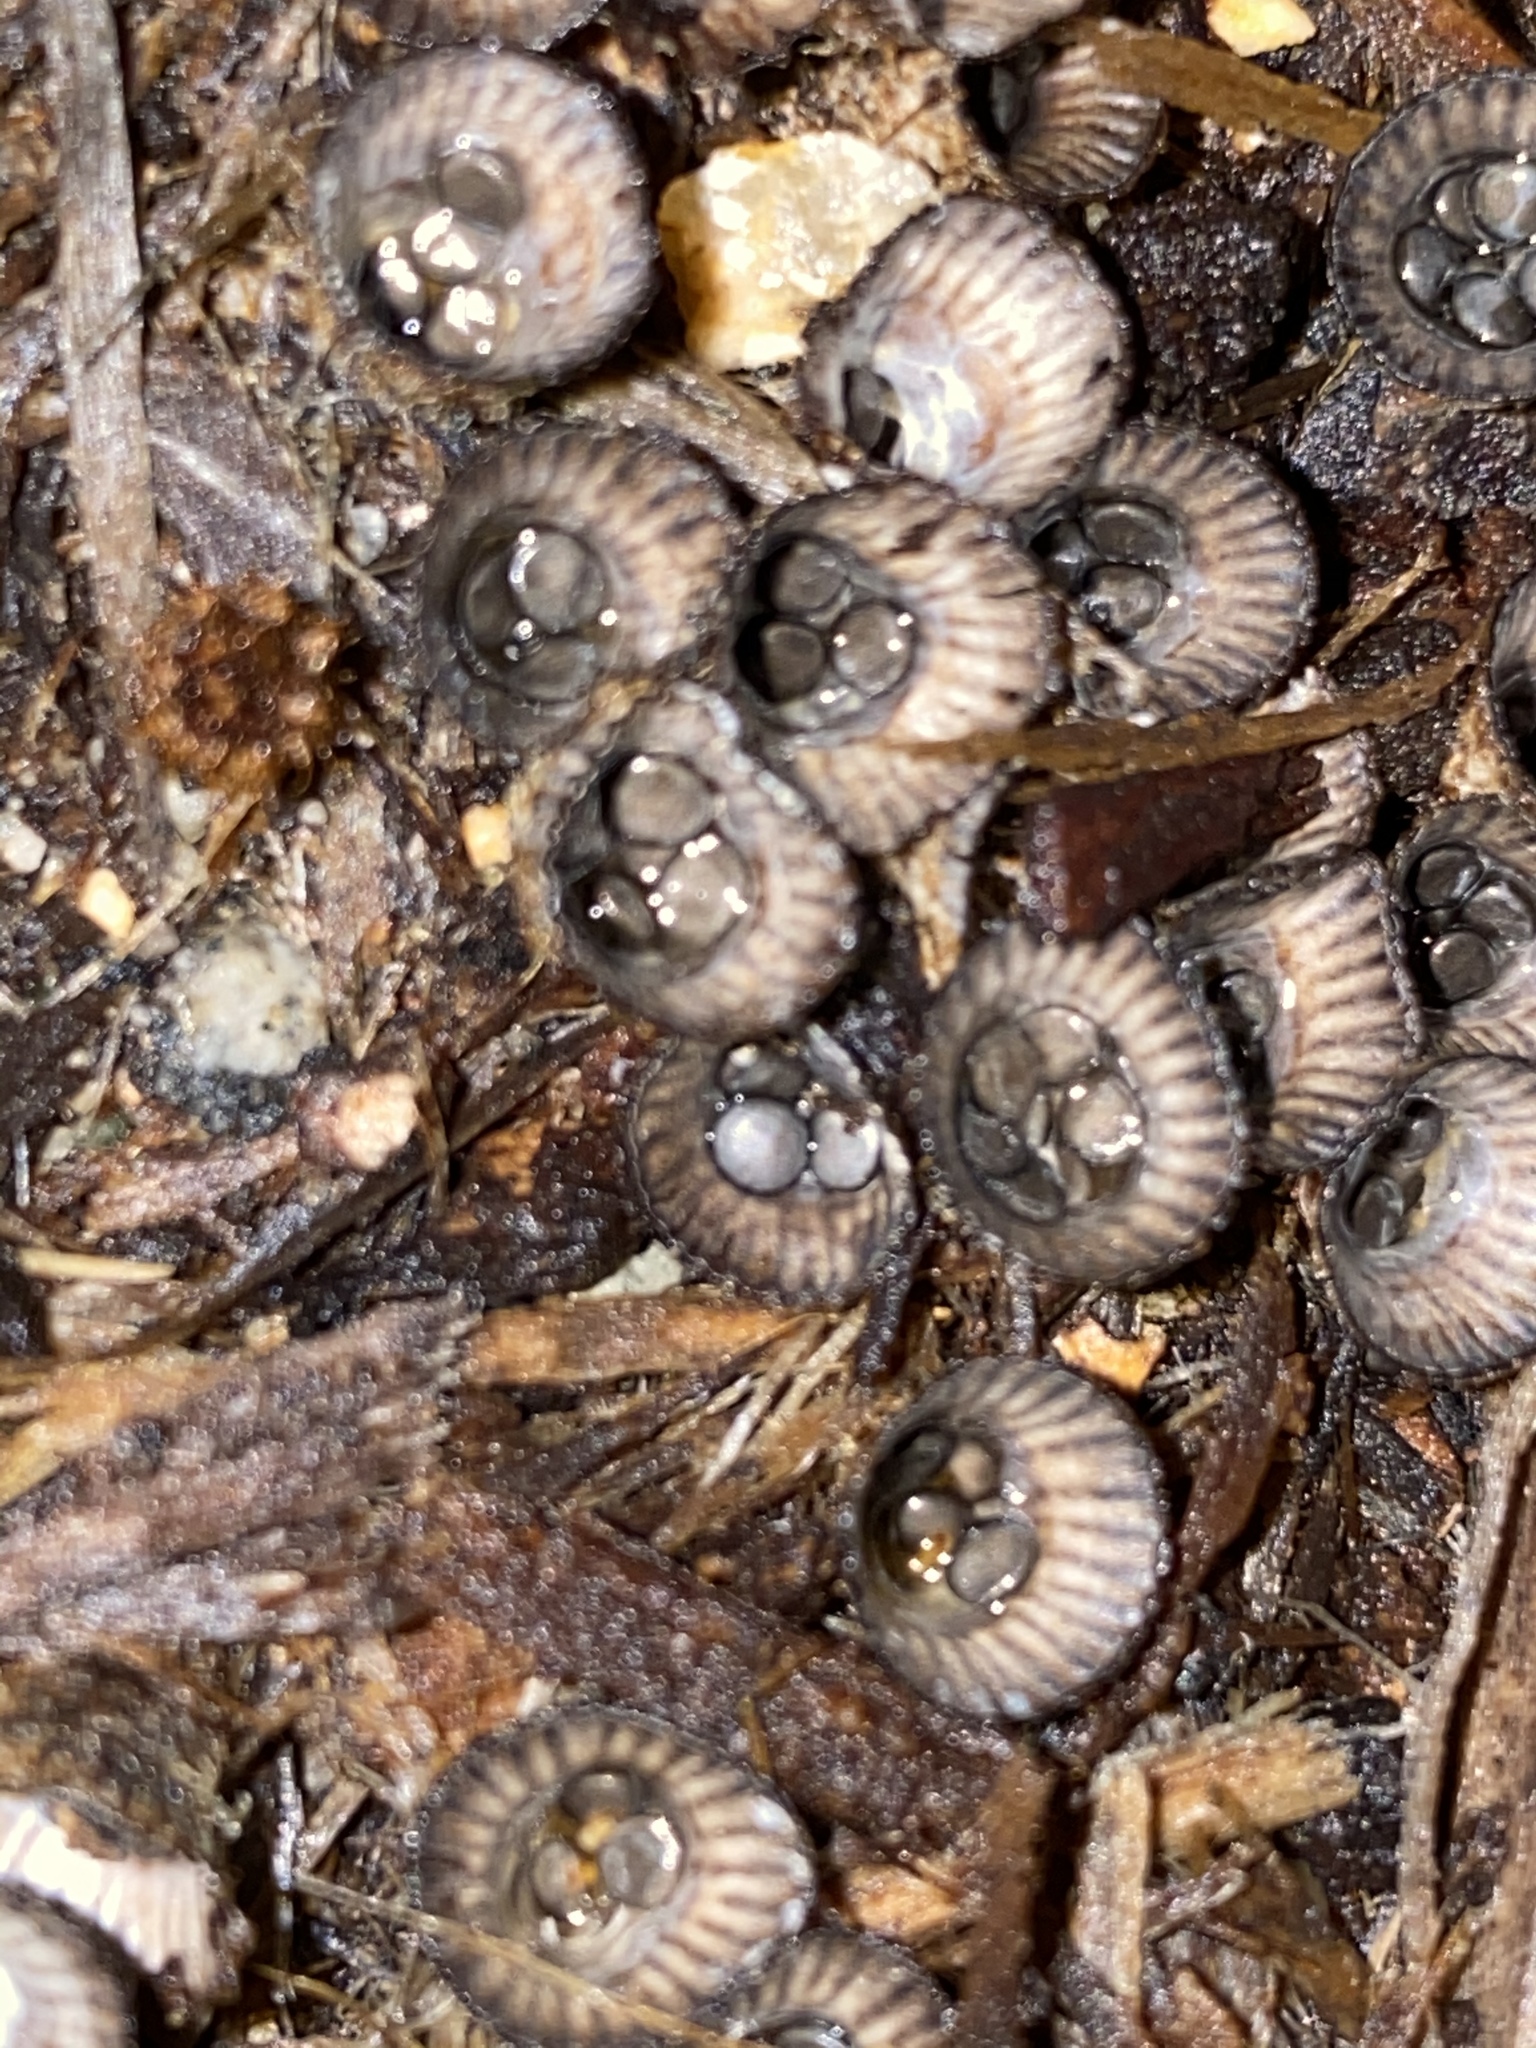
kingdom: Fungi
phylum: Basidiomycota
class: Agaricomycetes
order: Agaricales
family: Agaricaceae
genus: Cyathus
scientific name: Cyathus striatus
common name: Fluted bird's nest
